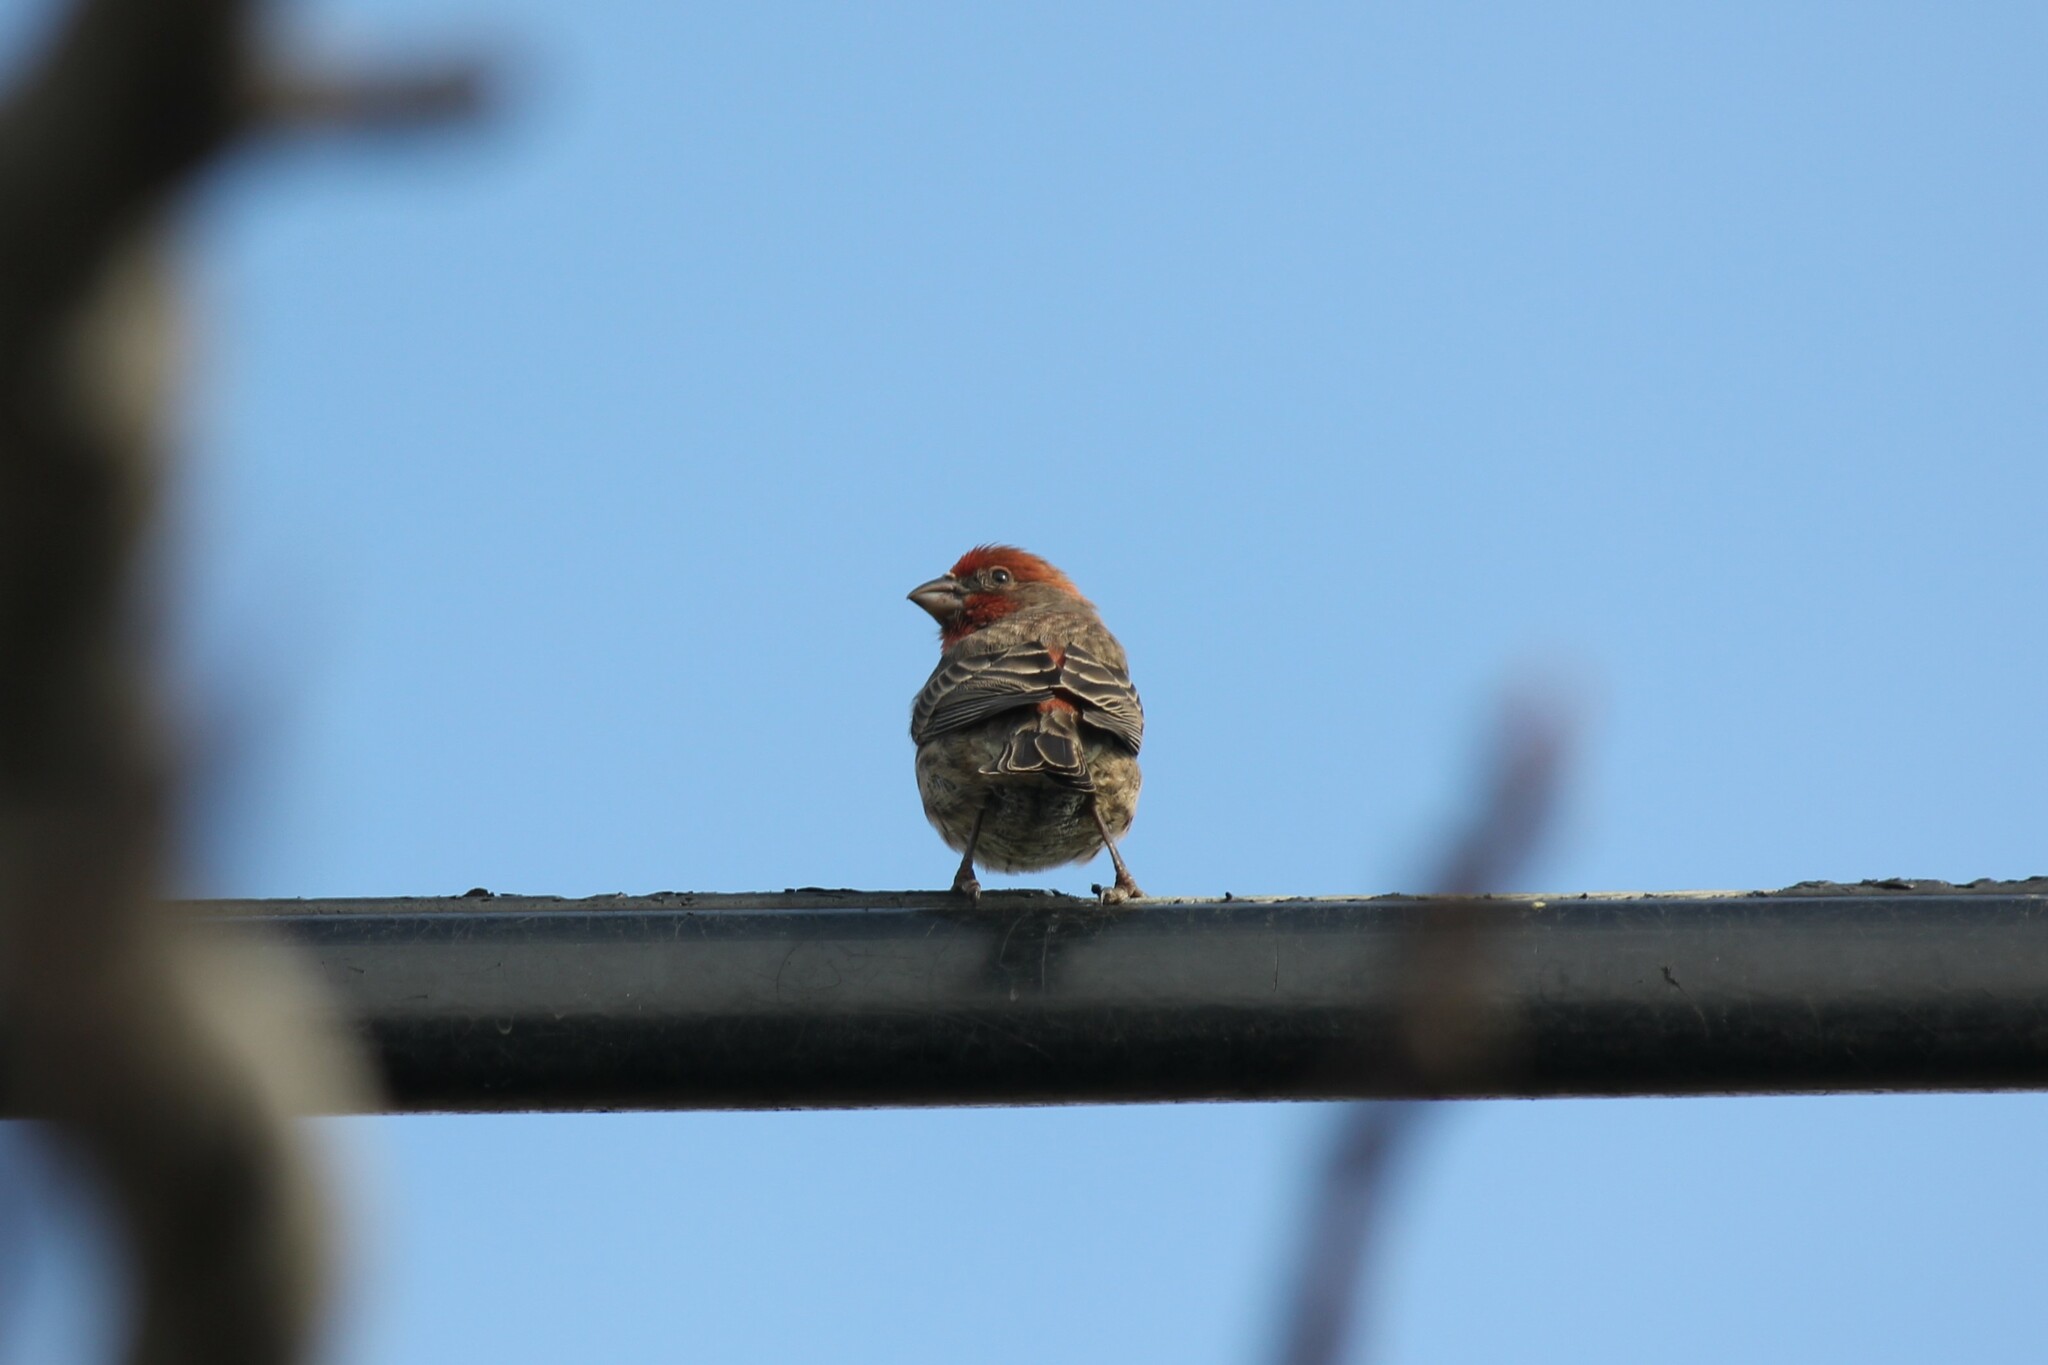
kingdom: Animalia
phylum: Chordata
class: Aves
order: Passeriformes
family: Fringillidae
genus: Haemorhous
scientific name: Haemorhous mexicanus
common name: House finch
